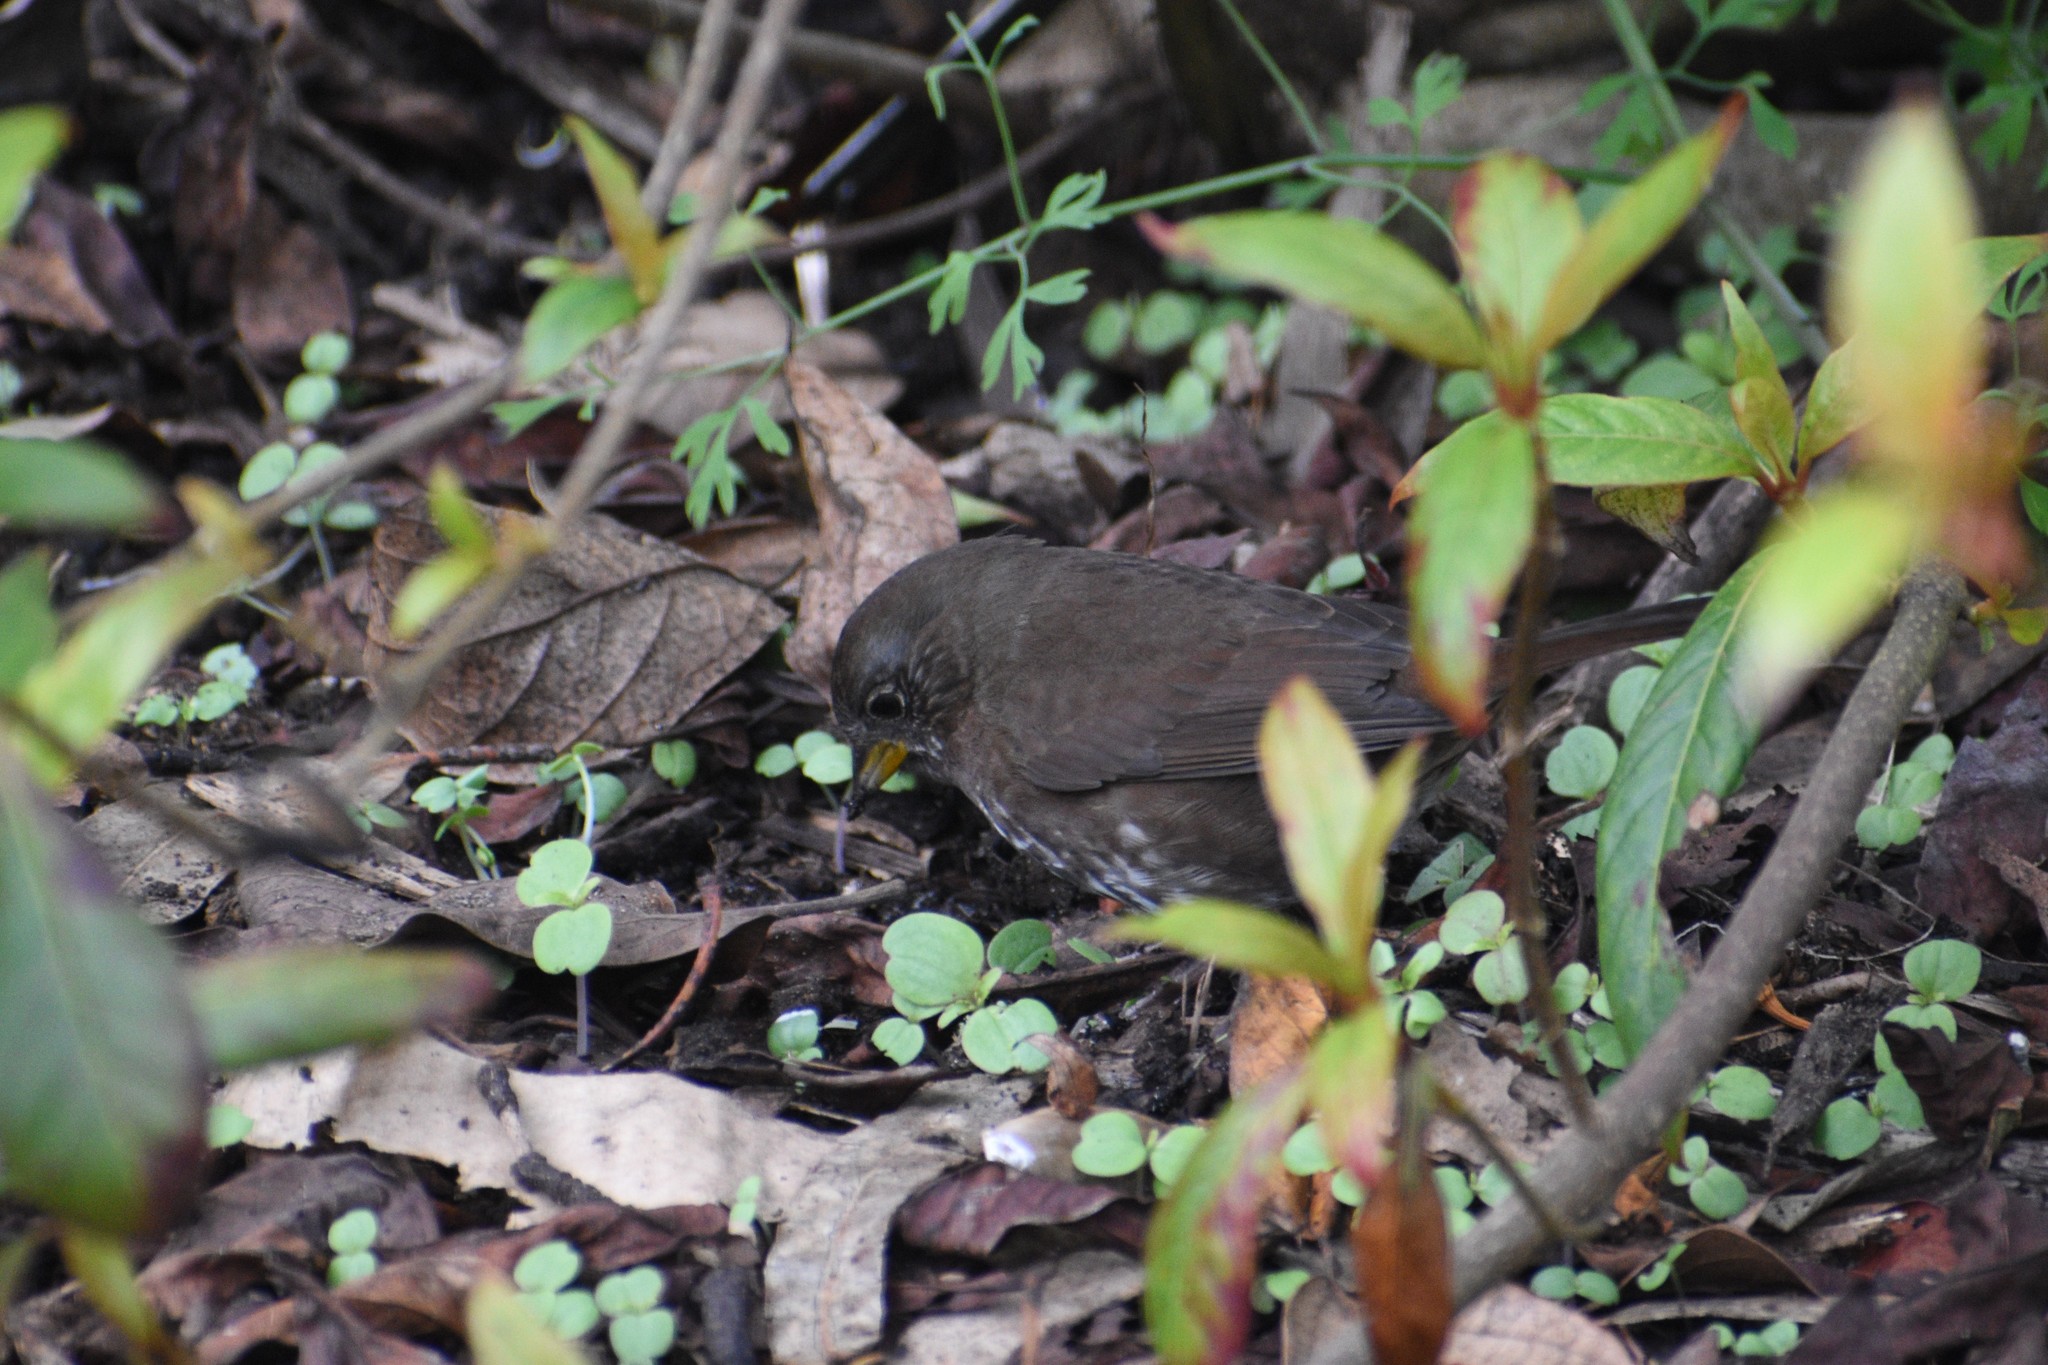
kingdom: Animalia
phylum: Chordata
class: Aves
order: Passeriformes
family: Passerellidae
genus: Passerella
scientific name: Passerella iliaca
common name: Fox sparrow
